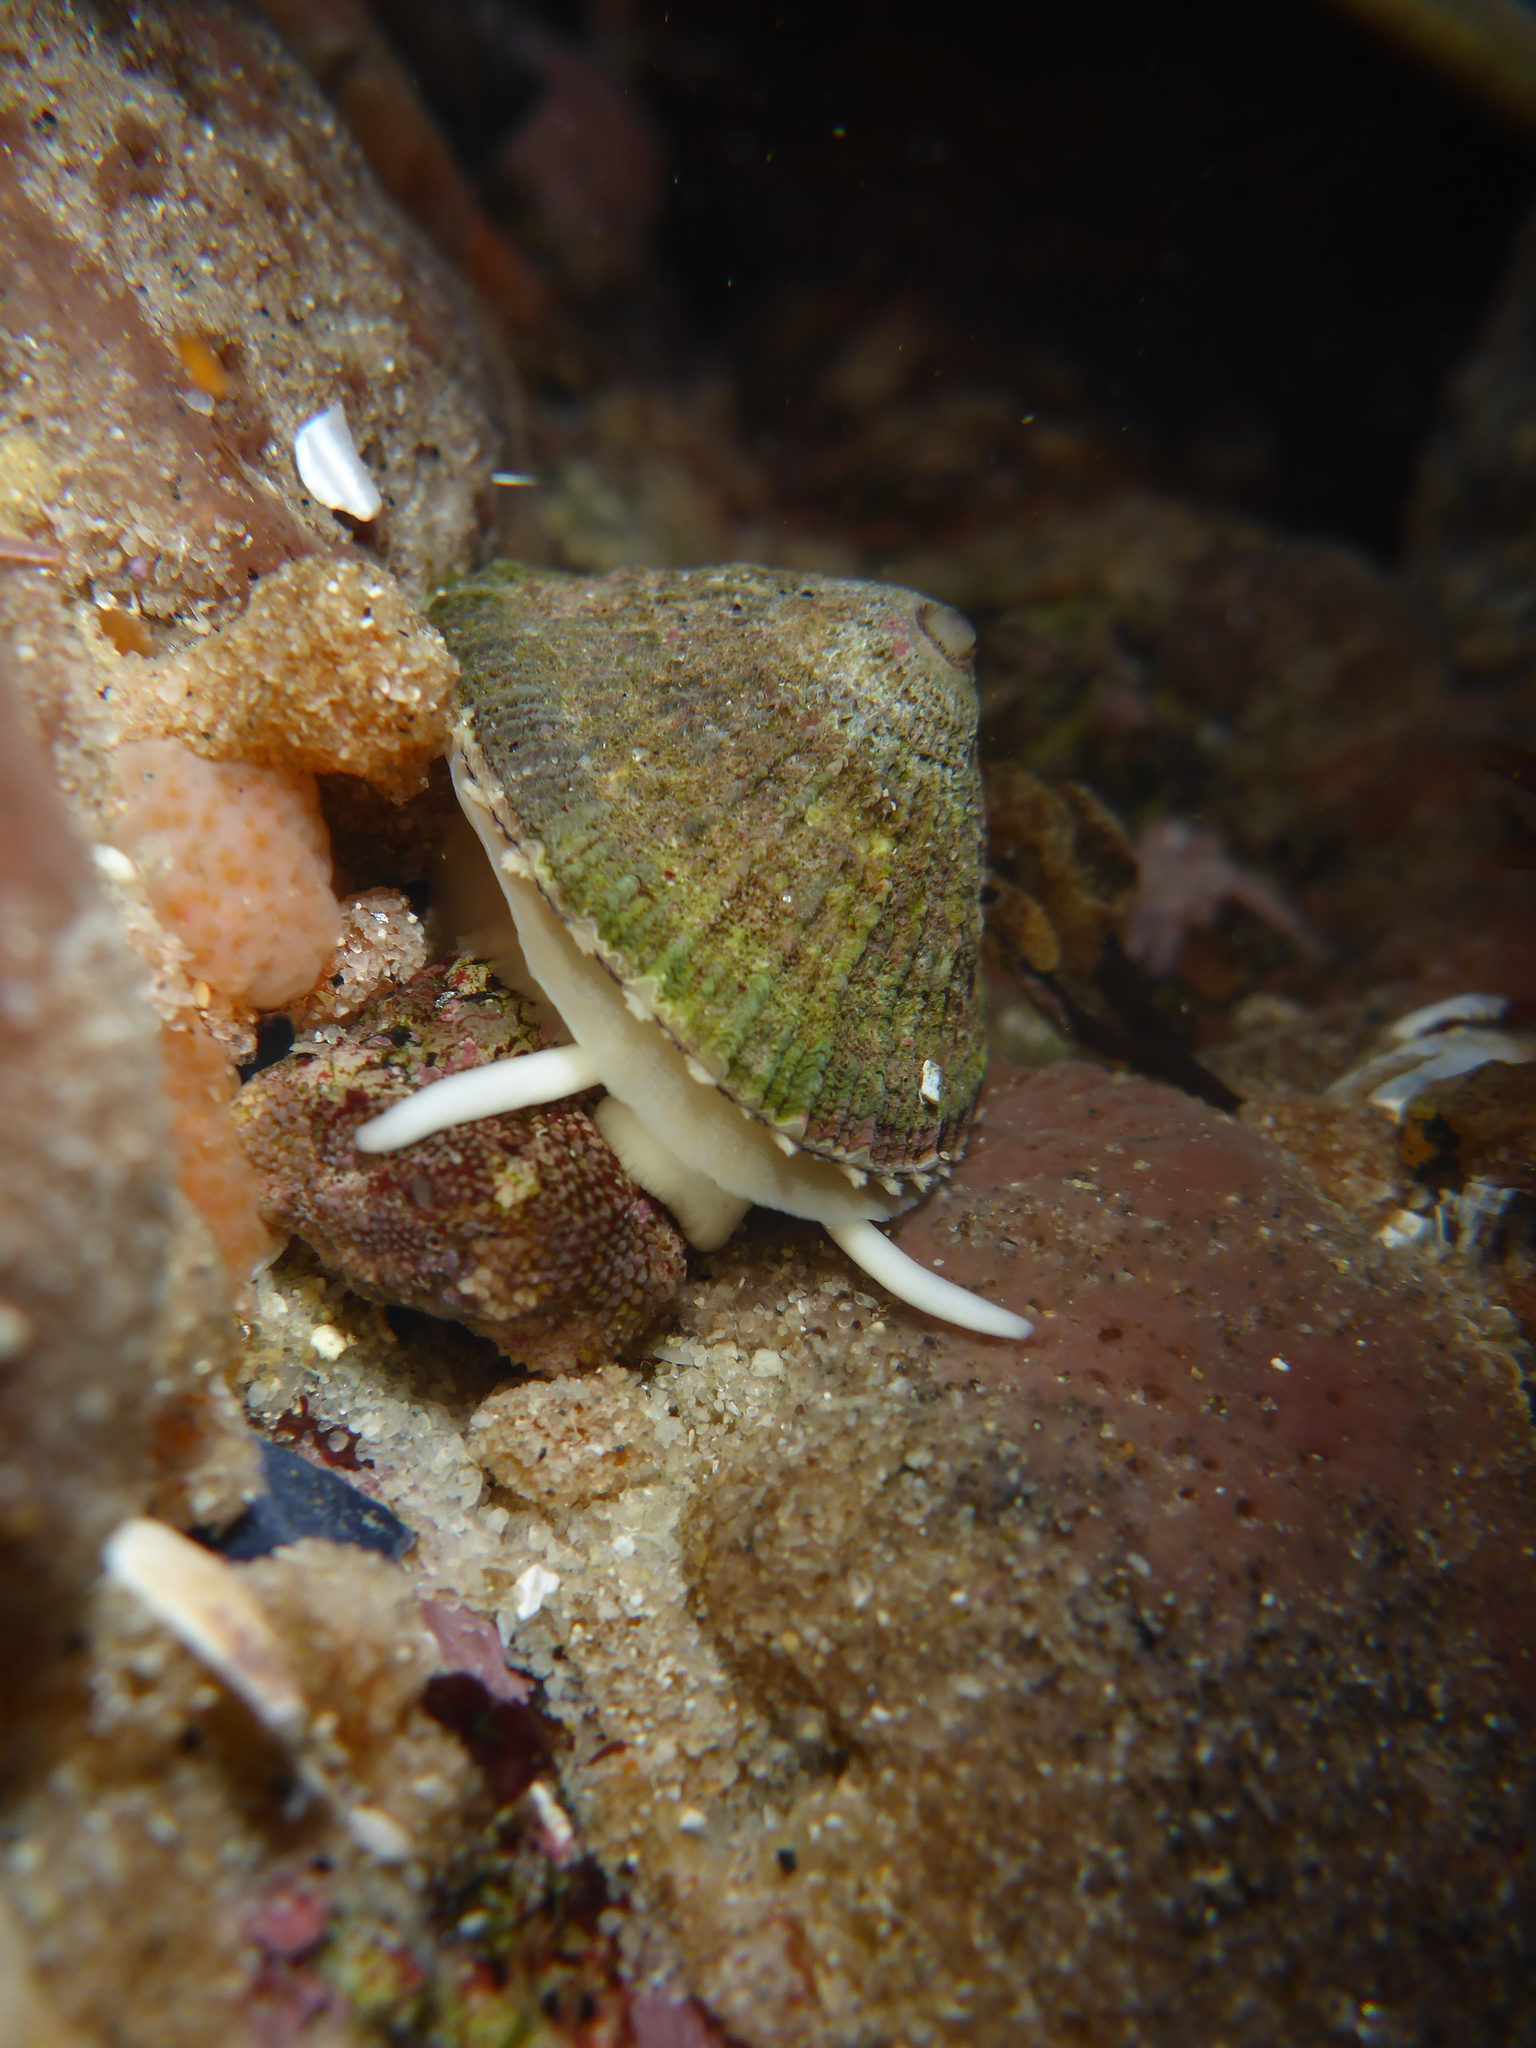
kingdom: Animalia
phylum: Mollusca
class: Gastropoda
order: Lepetellida
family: Fissurellidae
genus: Diodora
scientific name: Diodora aspera
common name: Rough keyhole limpet
